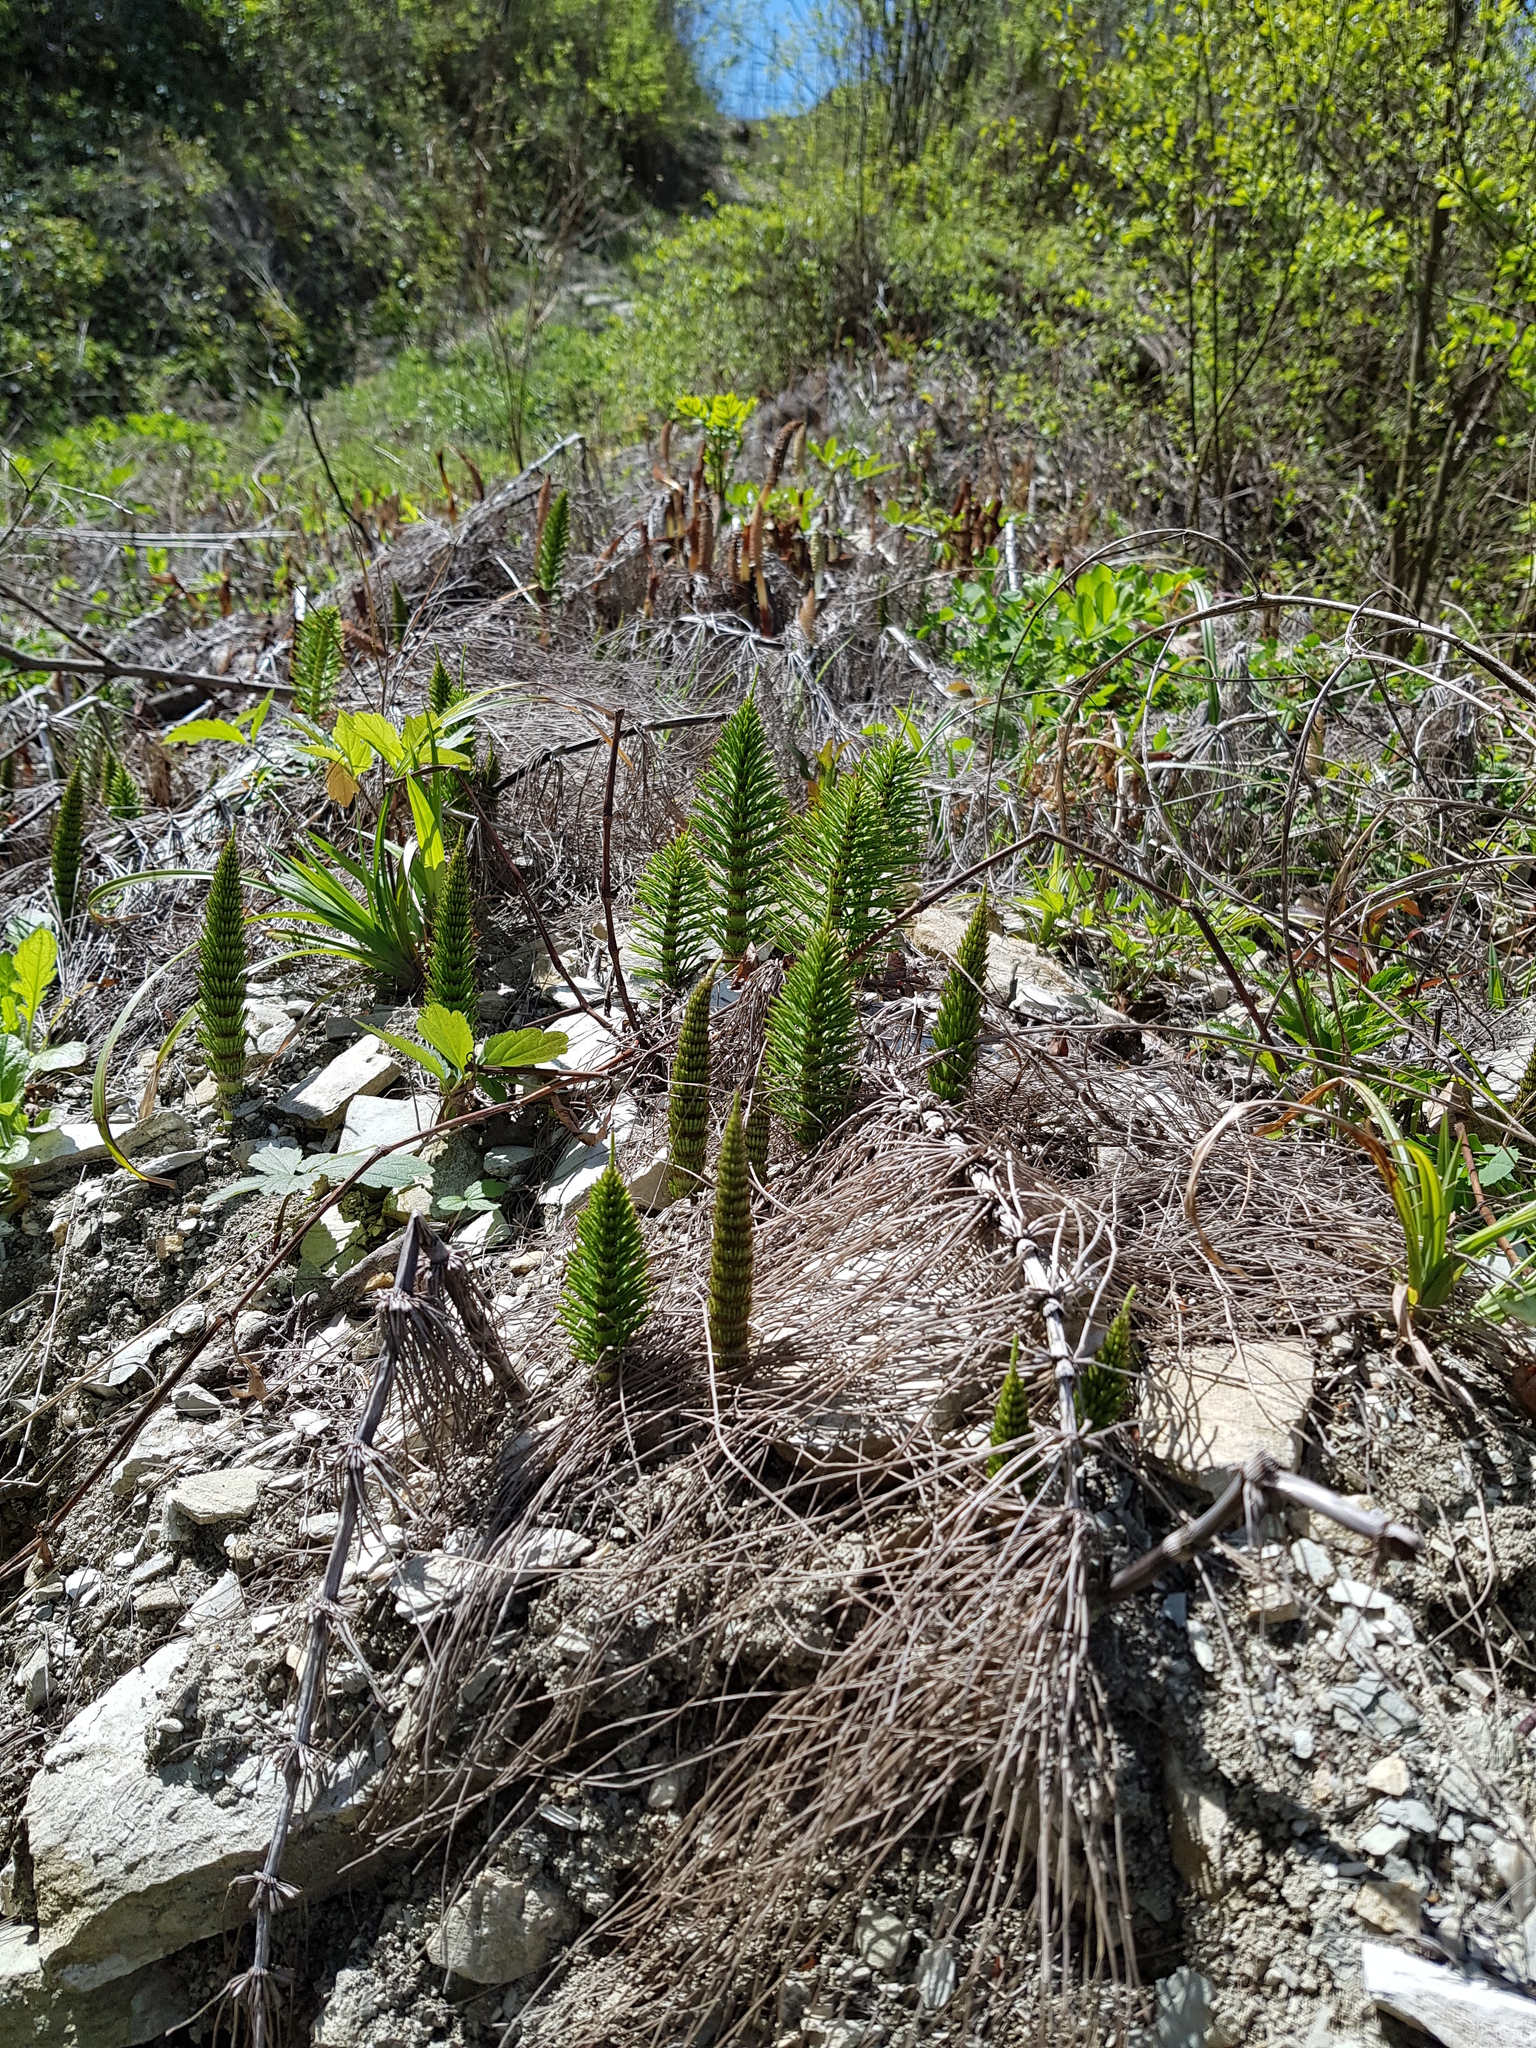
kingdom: Plantae
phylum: Tracheophyta
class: Polypodiopsida
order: Equisetales
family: Equisetaceae
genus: Equisetum
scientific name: Equisetum telmateia
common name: Great horsetail
